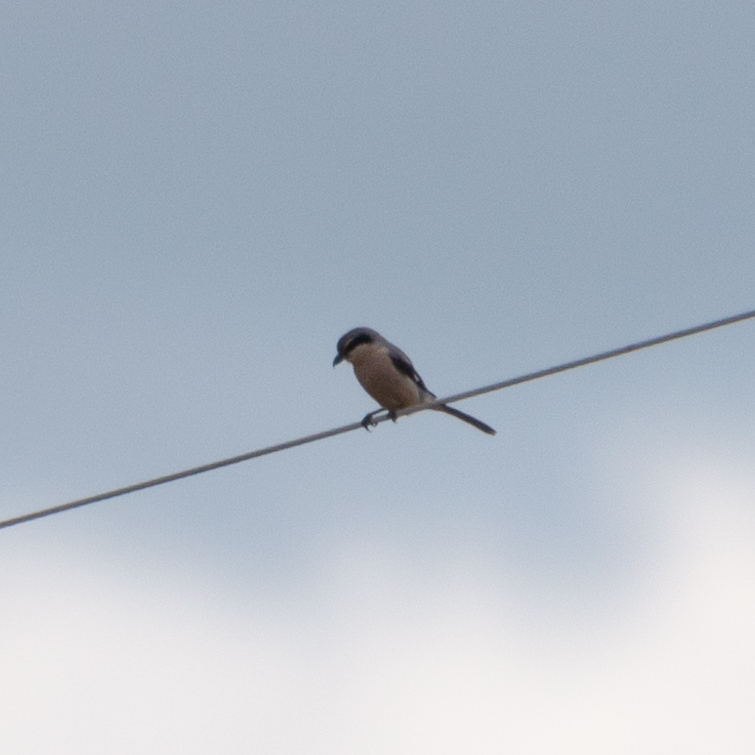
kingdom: Animalia
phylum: Chordata
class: Aves
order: Passeriformes
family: Laniidae
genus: Lanius
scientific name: Lanius meridionalis
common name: Iberian grey shrike
